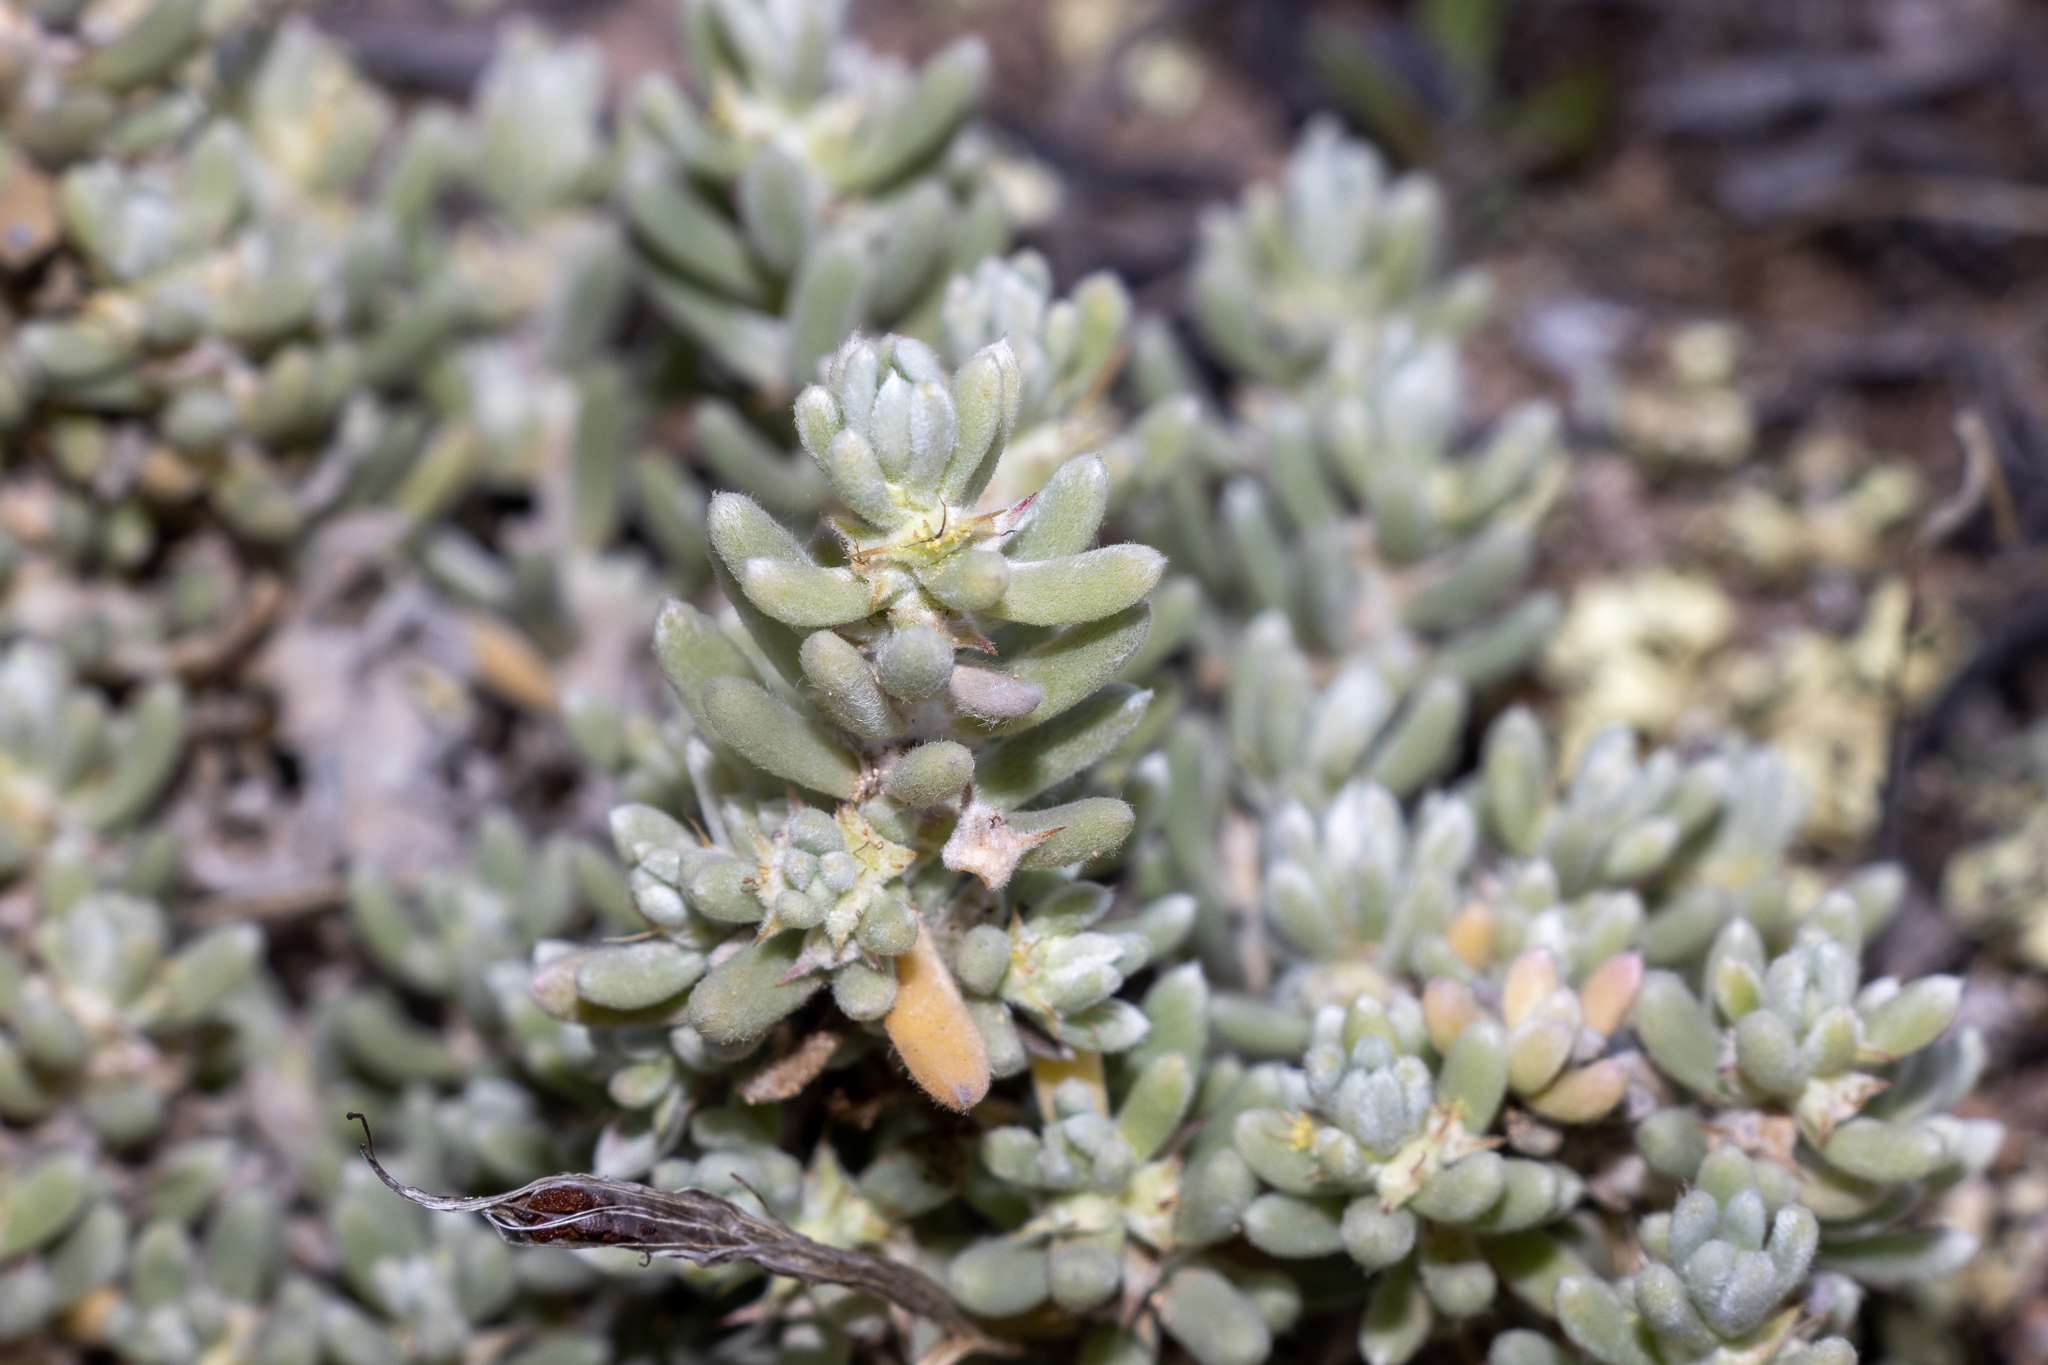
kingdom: Plantae
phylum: Tracheophyta
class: Magnoliopsida
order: Caryophyllales
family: Amaranthaceae
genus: Sclerolaena
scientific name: Sclerolaena diacantha
